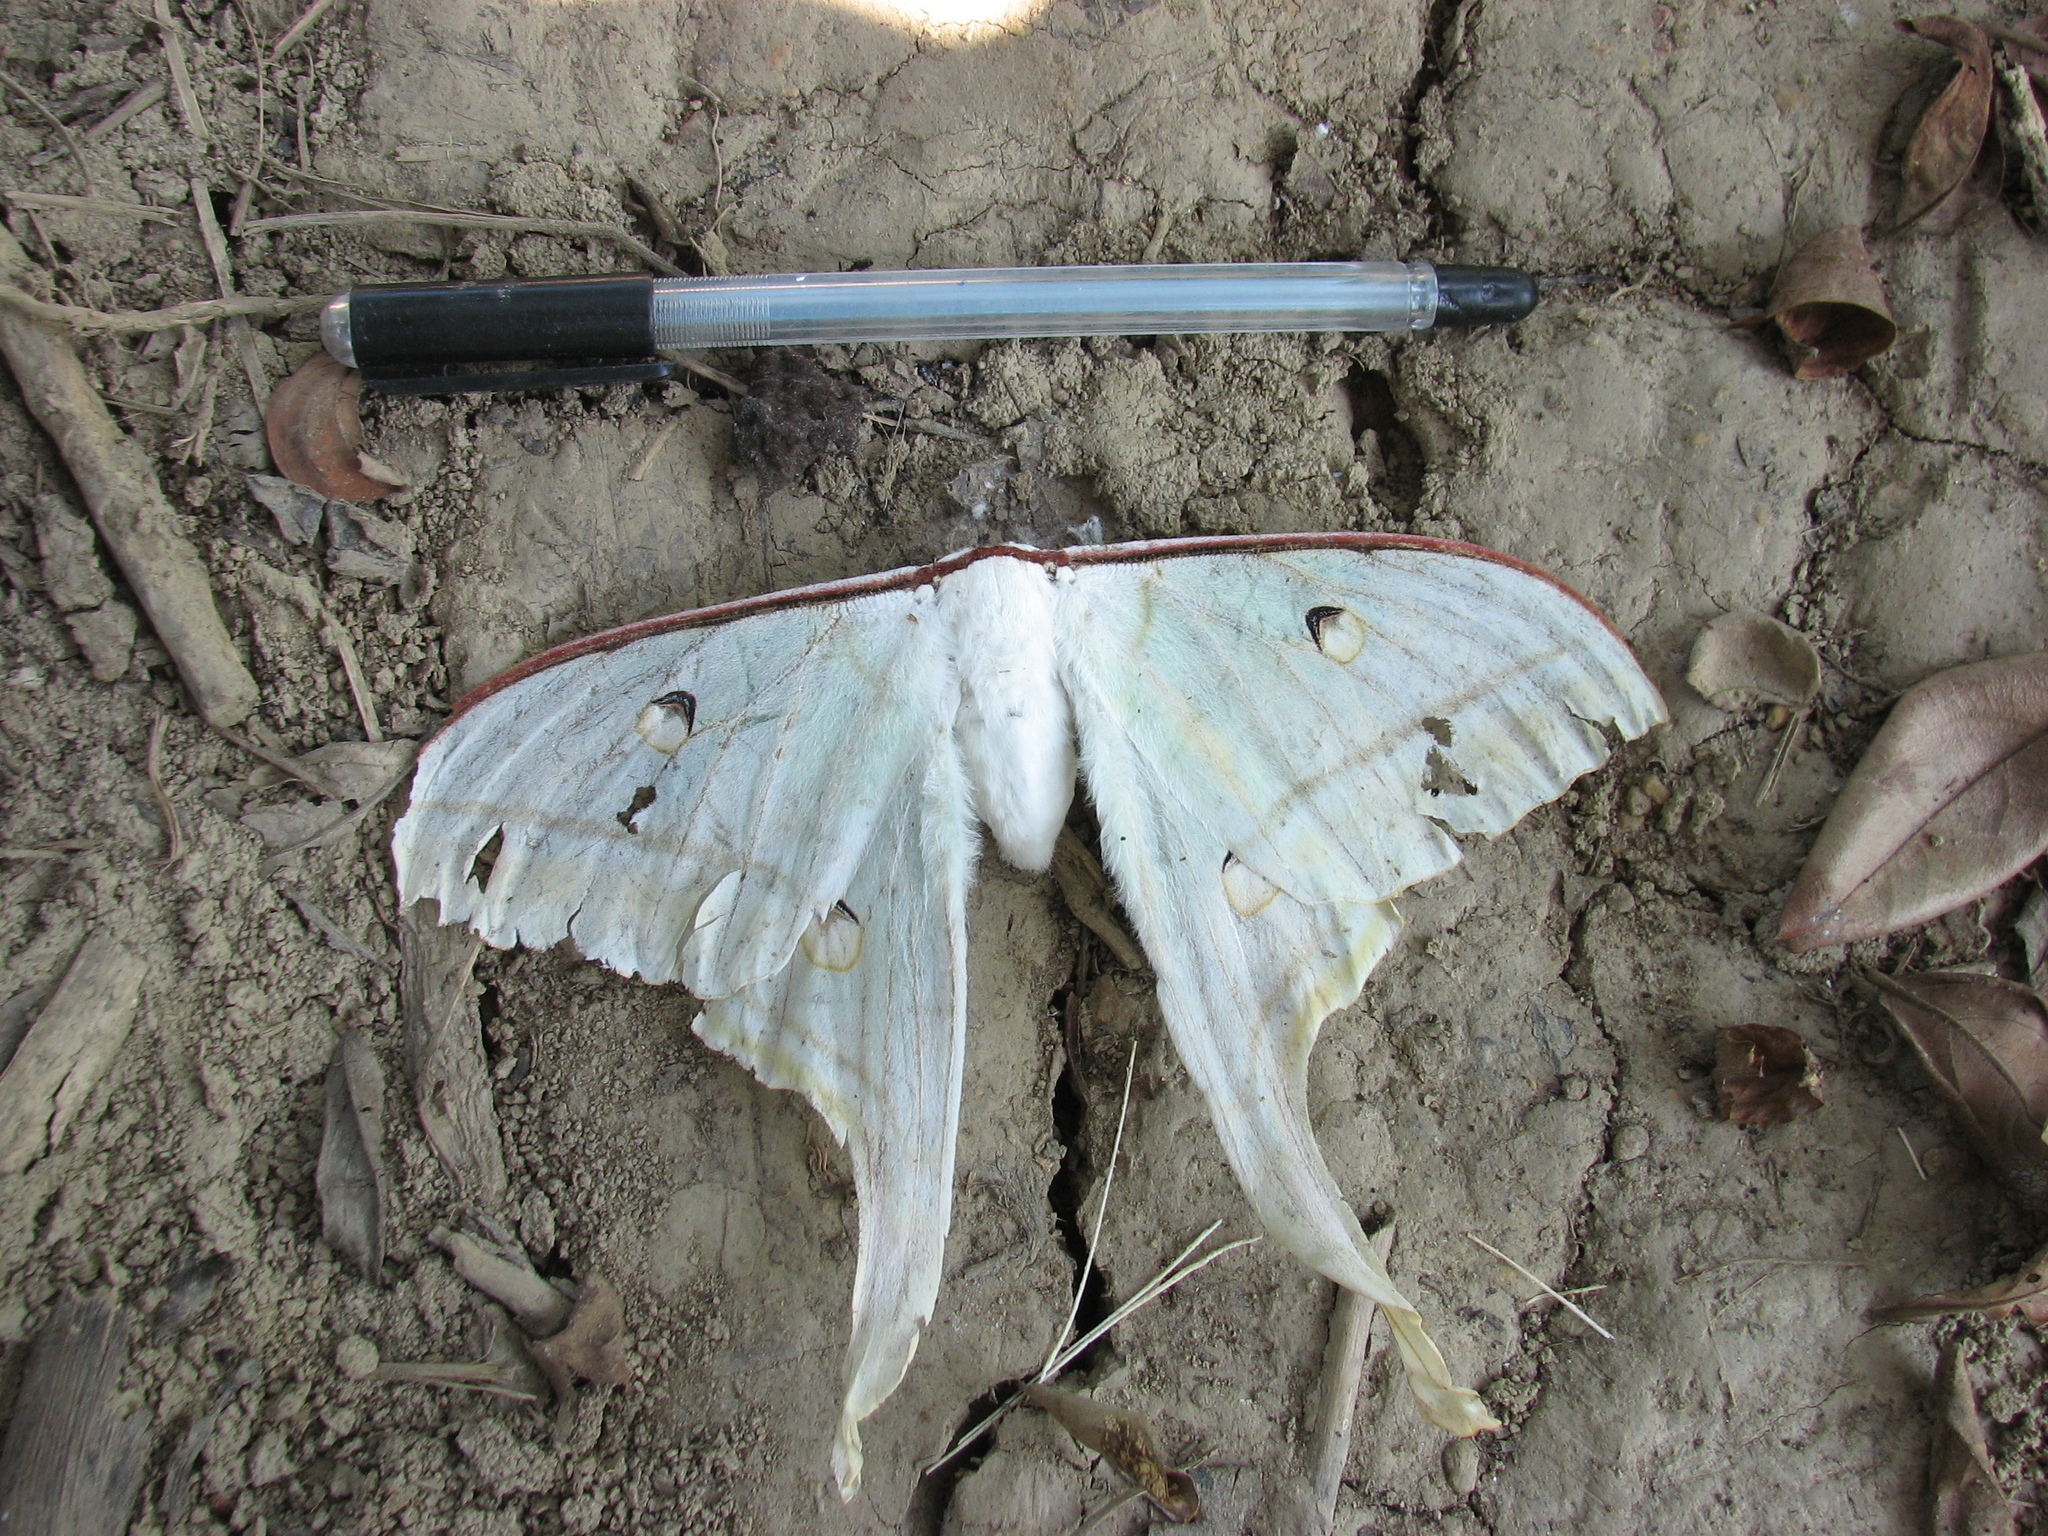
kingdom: Animalia
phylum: Arthropoda
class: Insecta
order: Lepidoptera
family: Saturniidae
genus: Actias
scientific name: Actias selene
